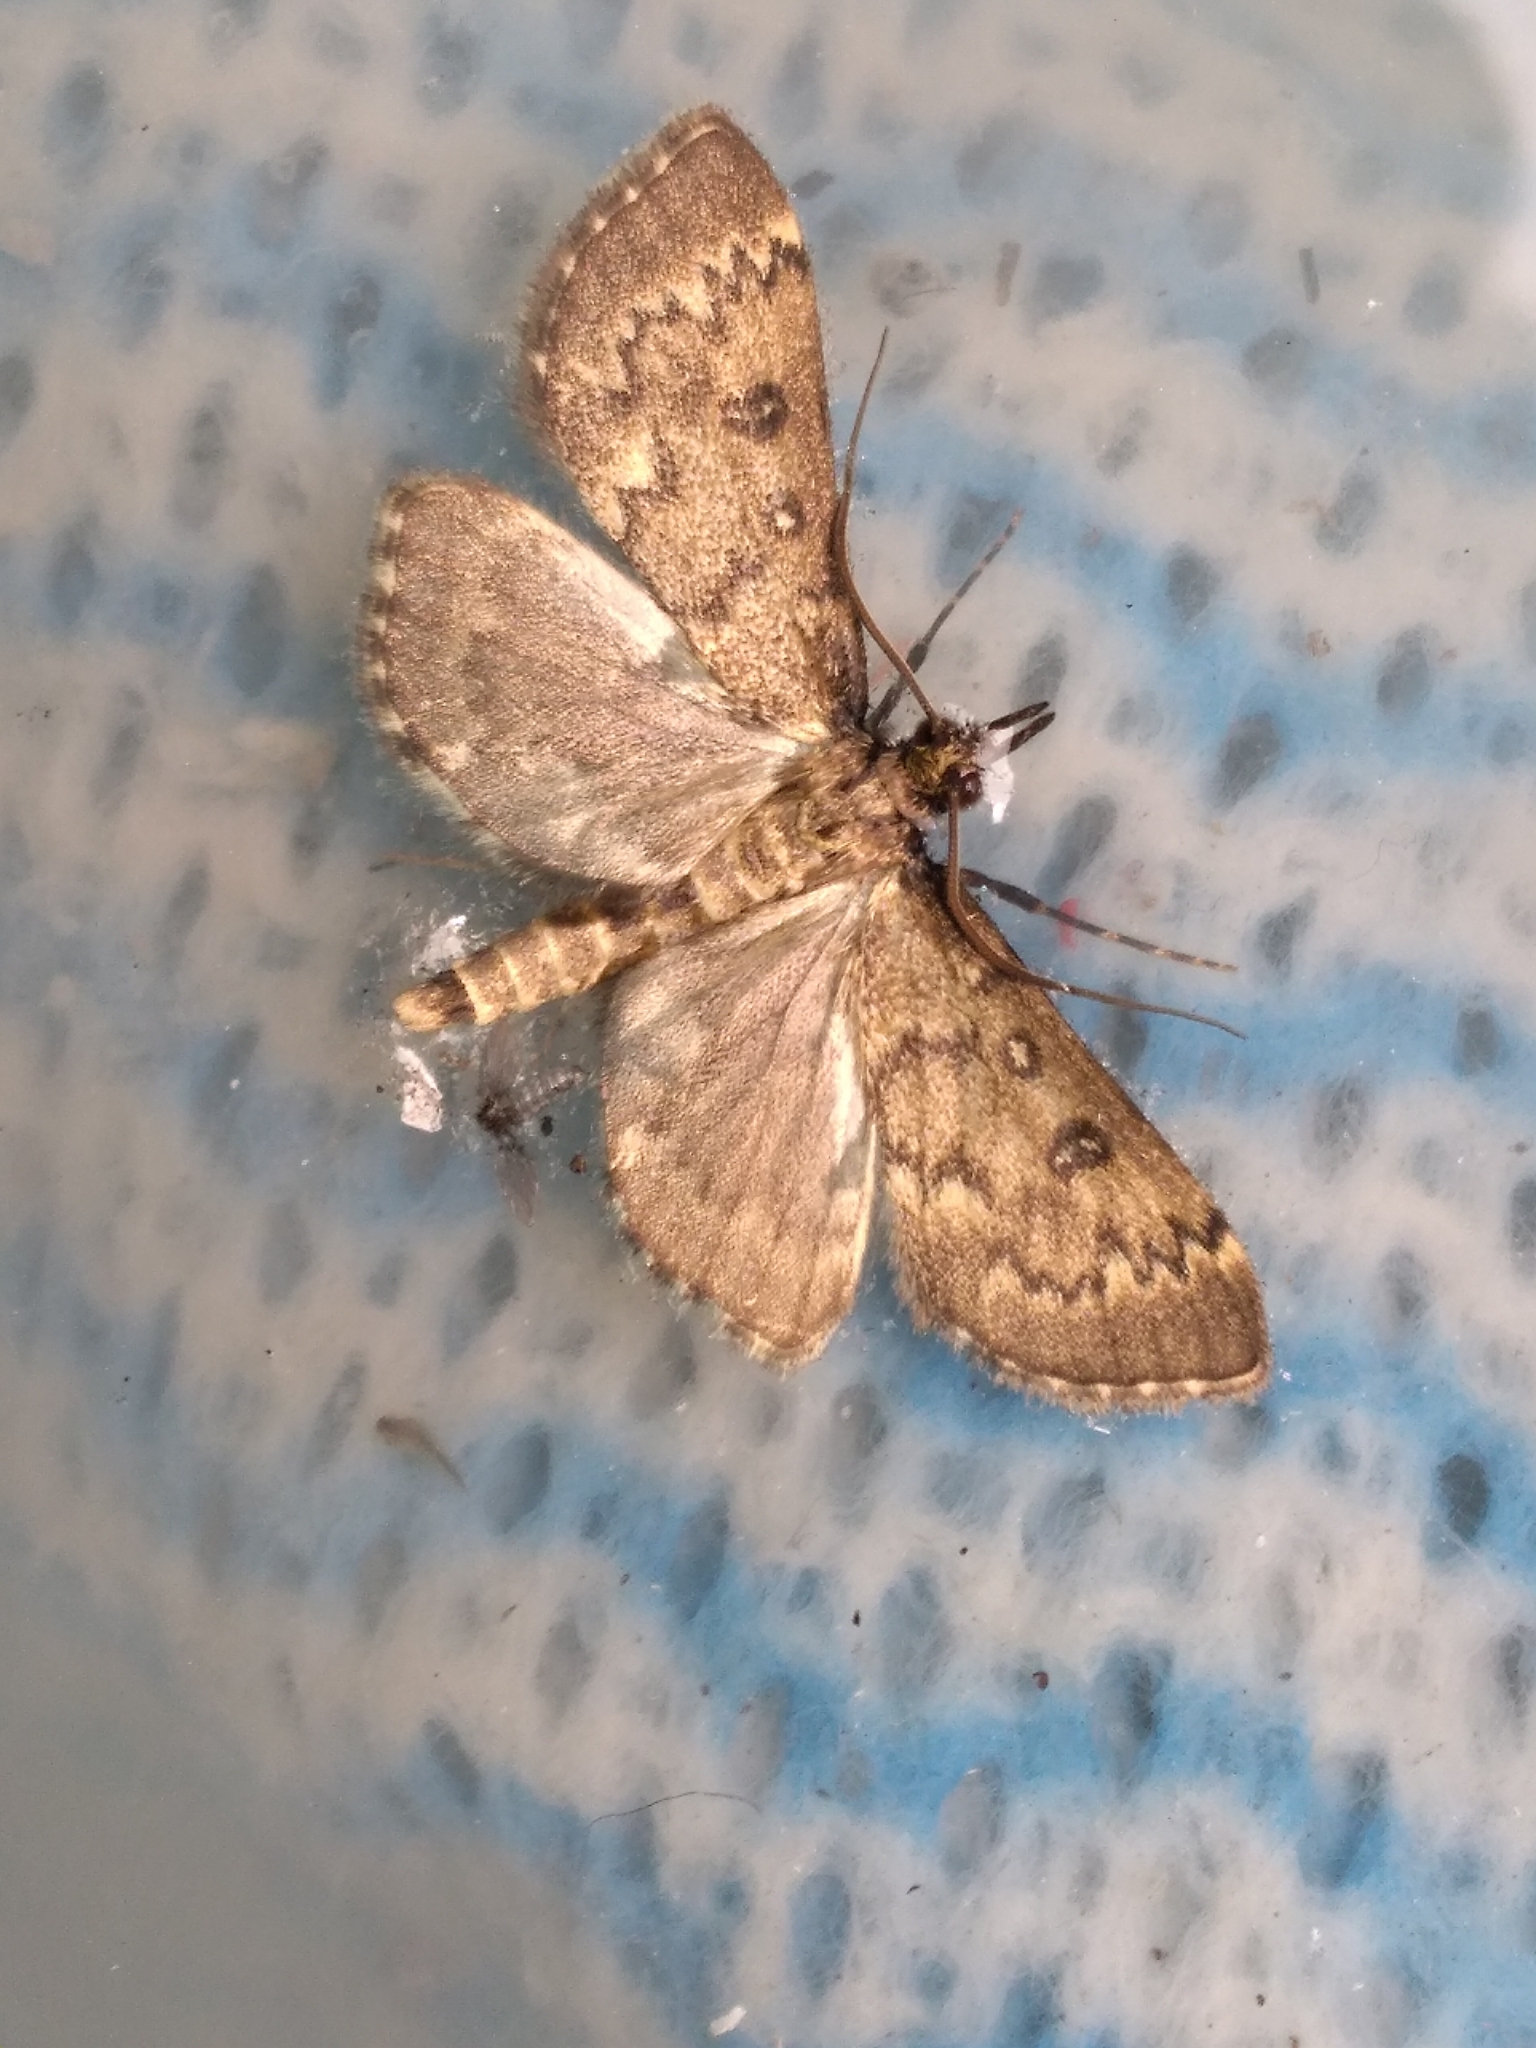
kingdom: Animalia
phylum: Arthropoda
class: Insecta
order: Lepidoptera
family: Crambidae
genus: Loxostege
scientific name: Loxostege Proternia philocapna
